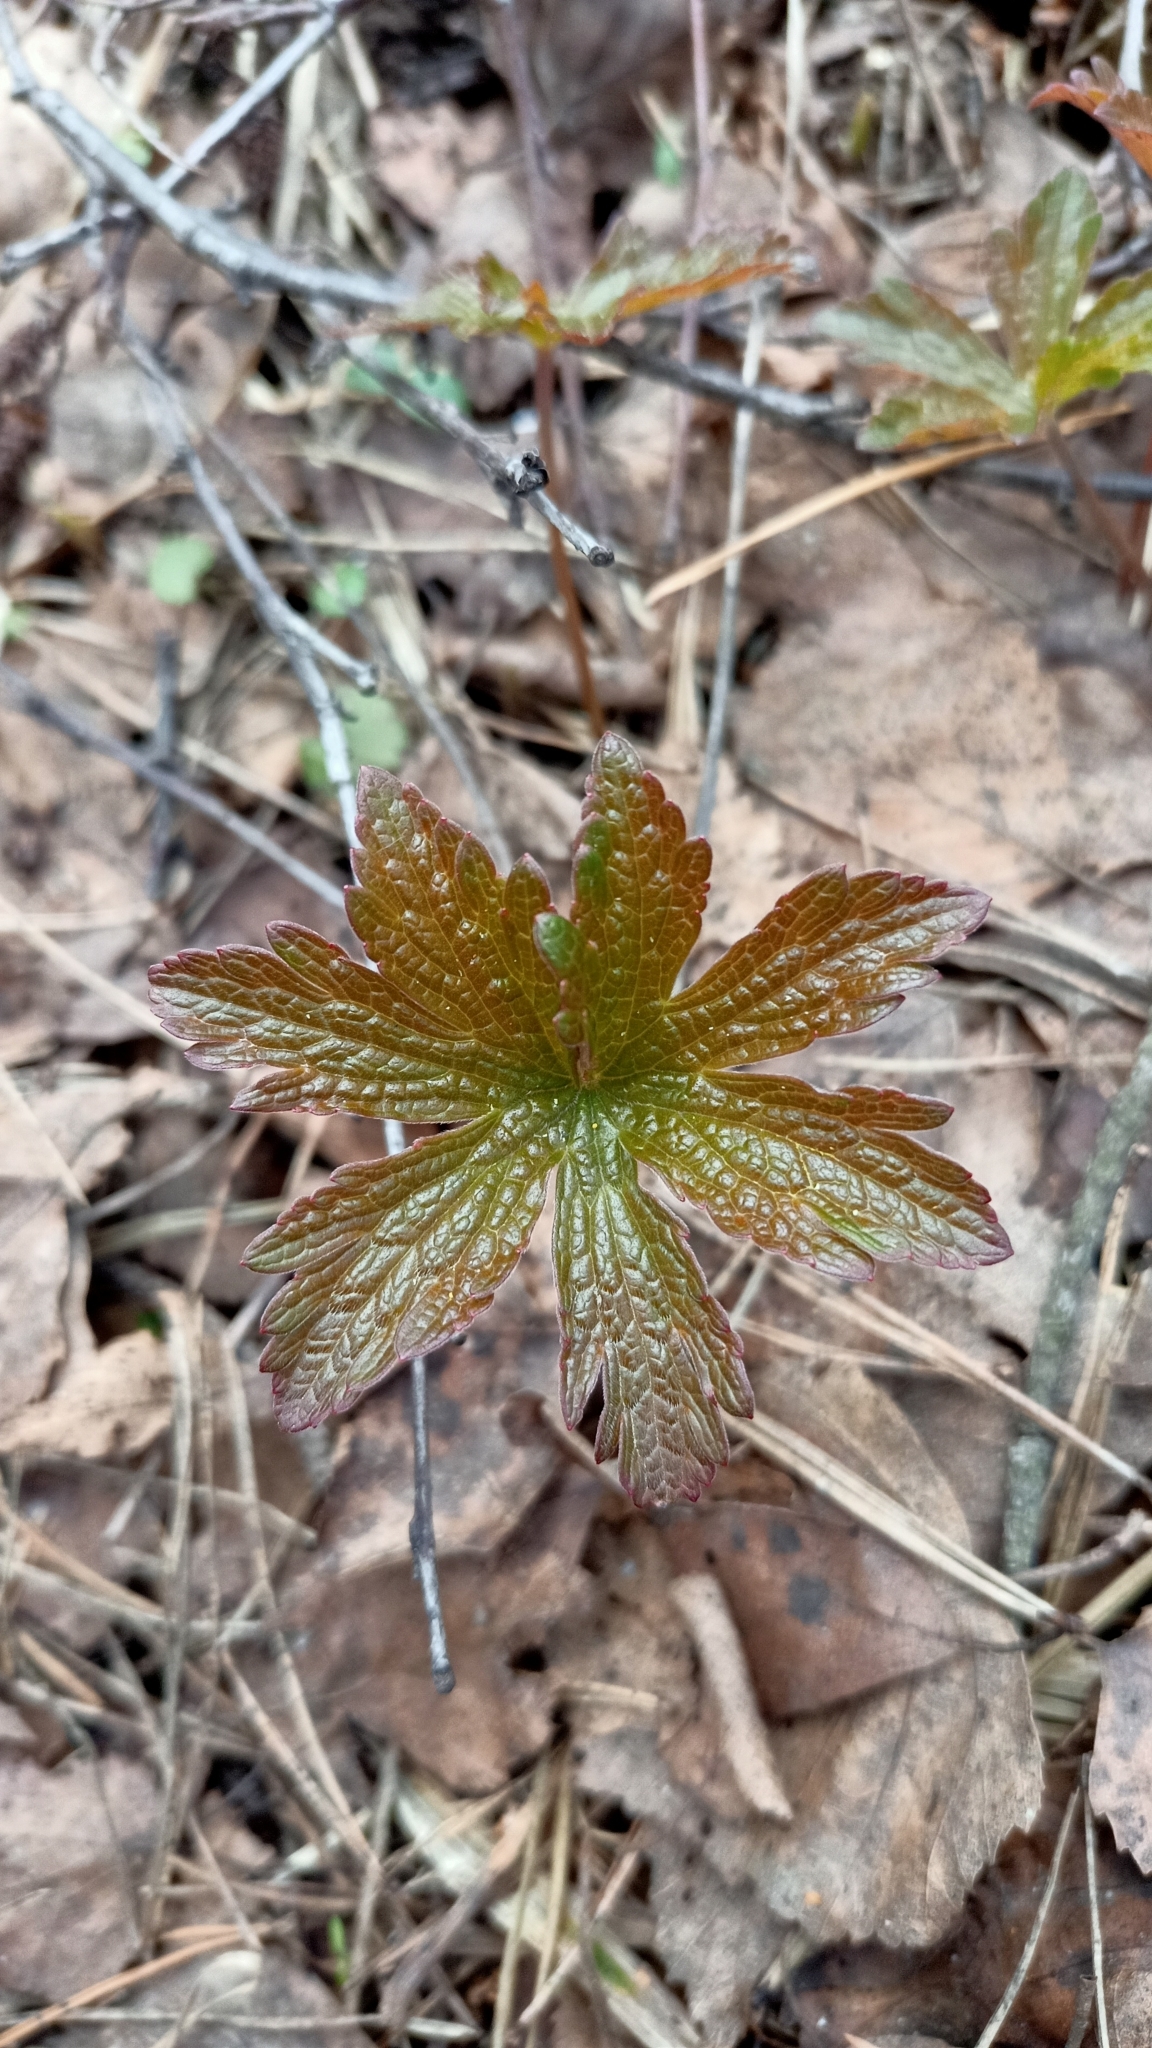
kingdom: Plantae
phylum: Tracheophyta
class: Magnoliopsida
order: Geraniales
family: Geraniaceae
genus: Geranium
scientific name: Geranium sylvaticum
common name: Wood crane's-bill
